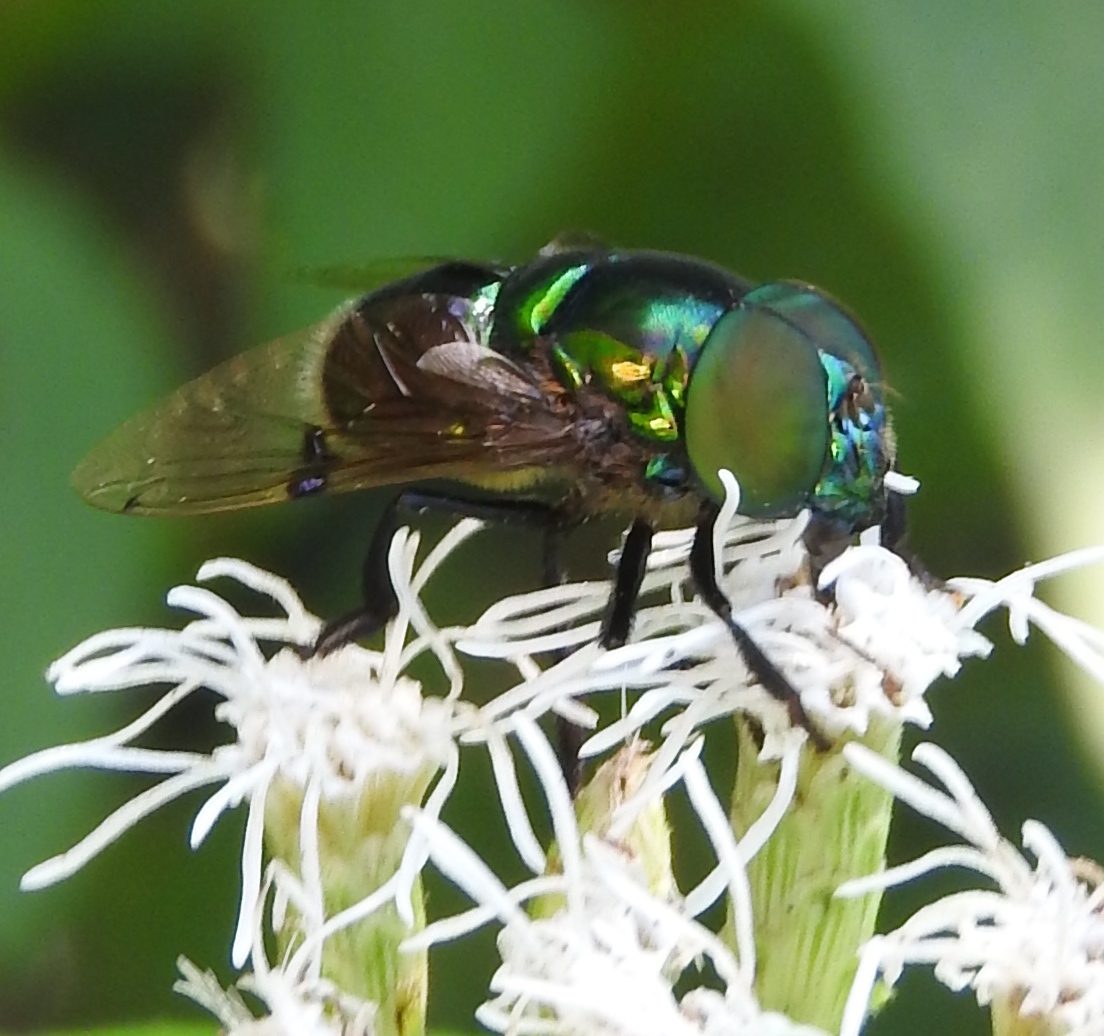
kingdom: Animalia
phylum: Arthropoda
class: Insecta
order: Diptera
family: Syrphidae
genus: Ornidia
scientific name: Ornidia
